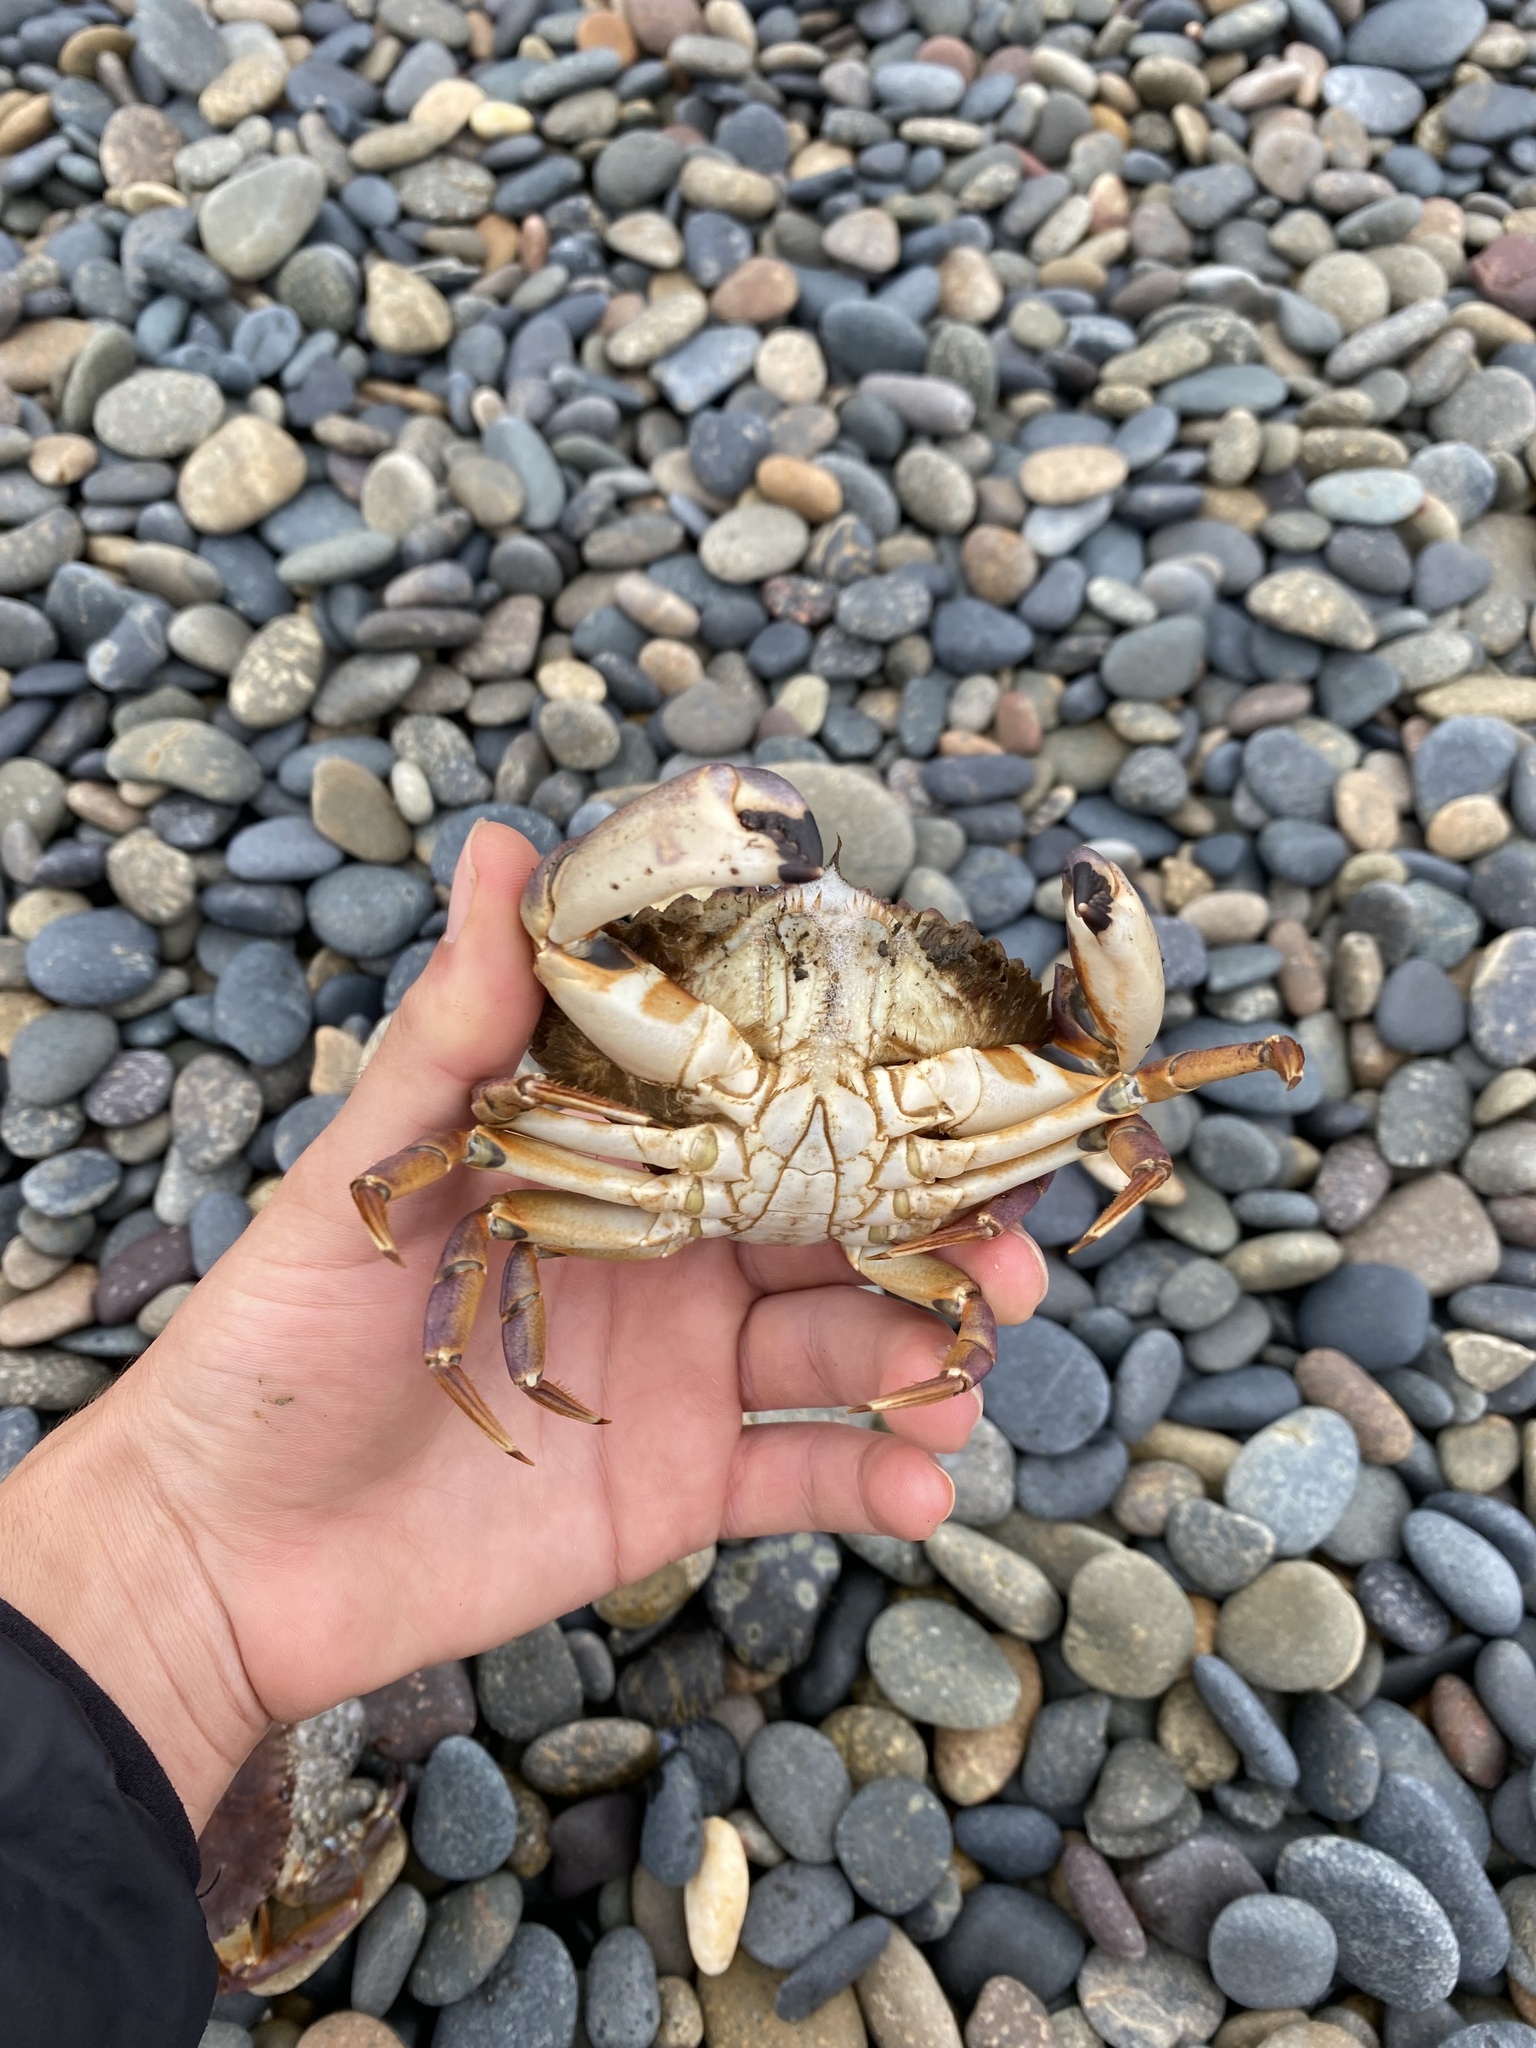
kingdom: Animalia
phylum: Arthropoda
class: Malacostraca
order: Decapoda
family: Cancridae
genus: Metacarcinus
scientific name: Metacarcinus anthonyi
